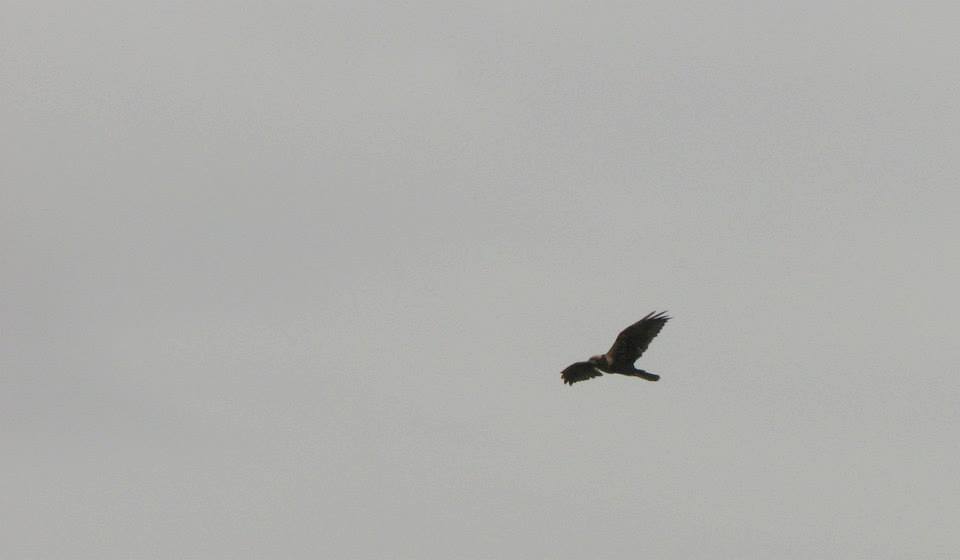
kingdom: Animalia
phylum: Chordata
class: Aves
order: Accipitriformes
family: Accipitridae
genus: Circus
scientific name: Circus aeruginosus
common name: Western marsh harrier
